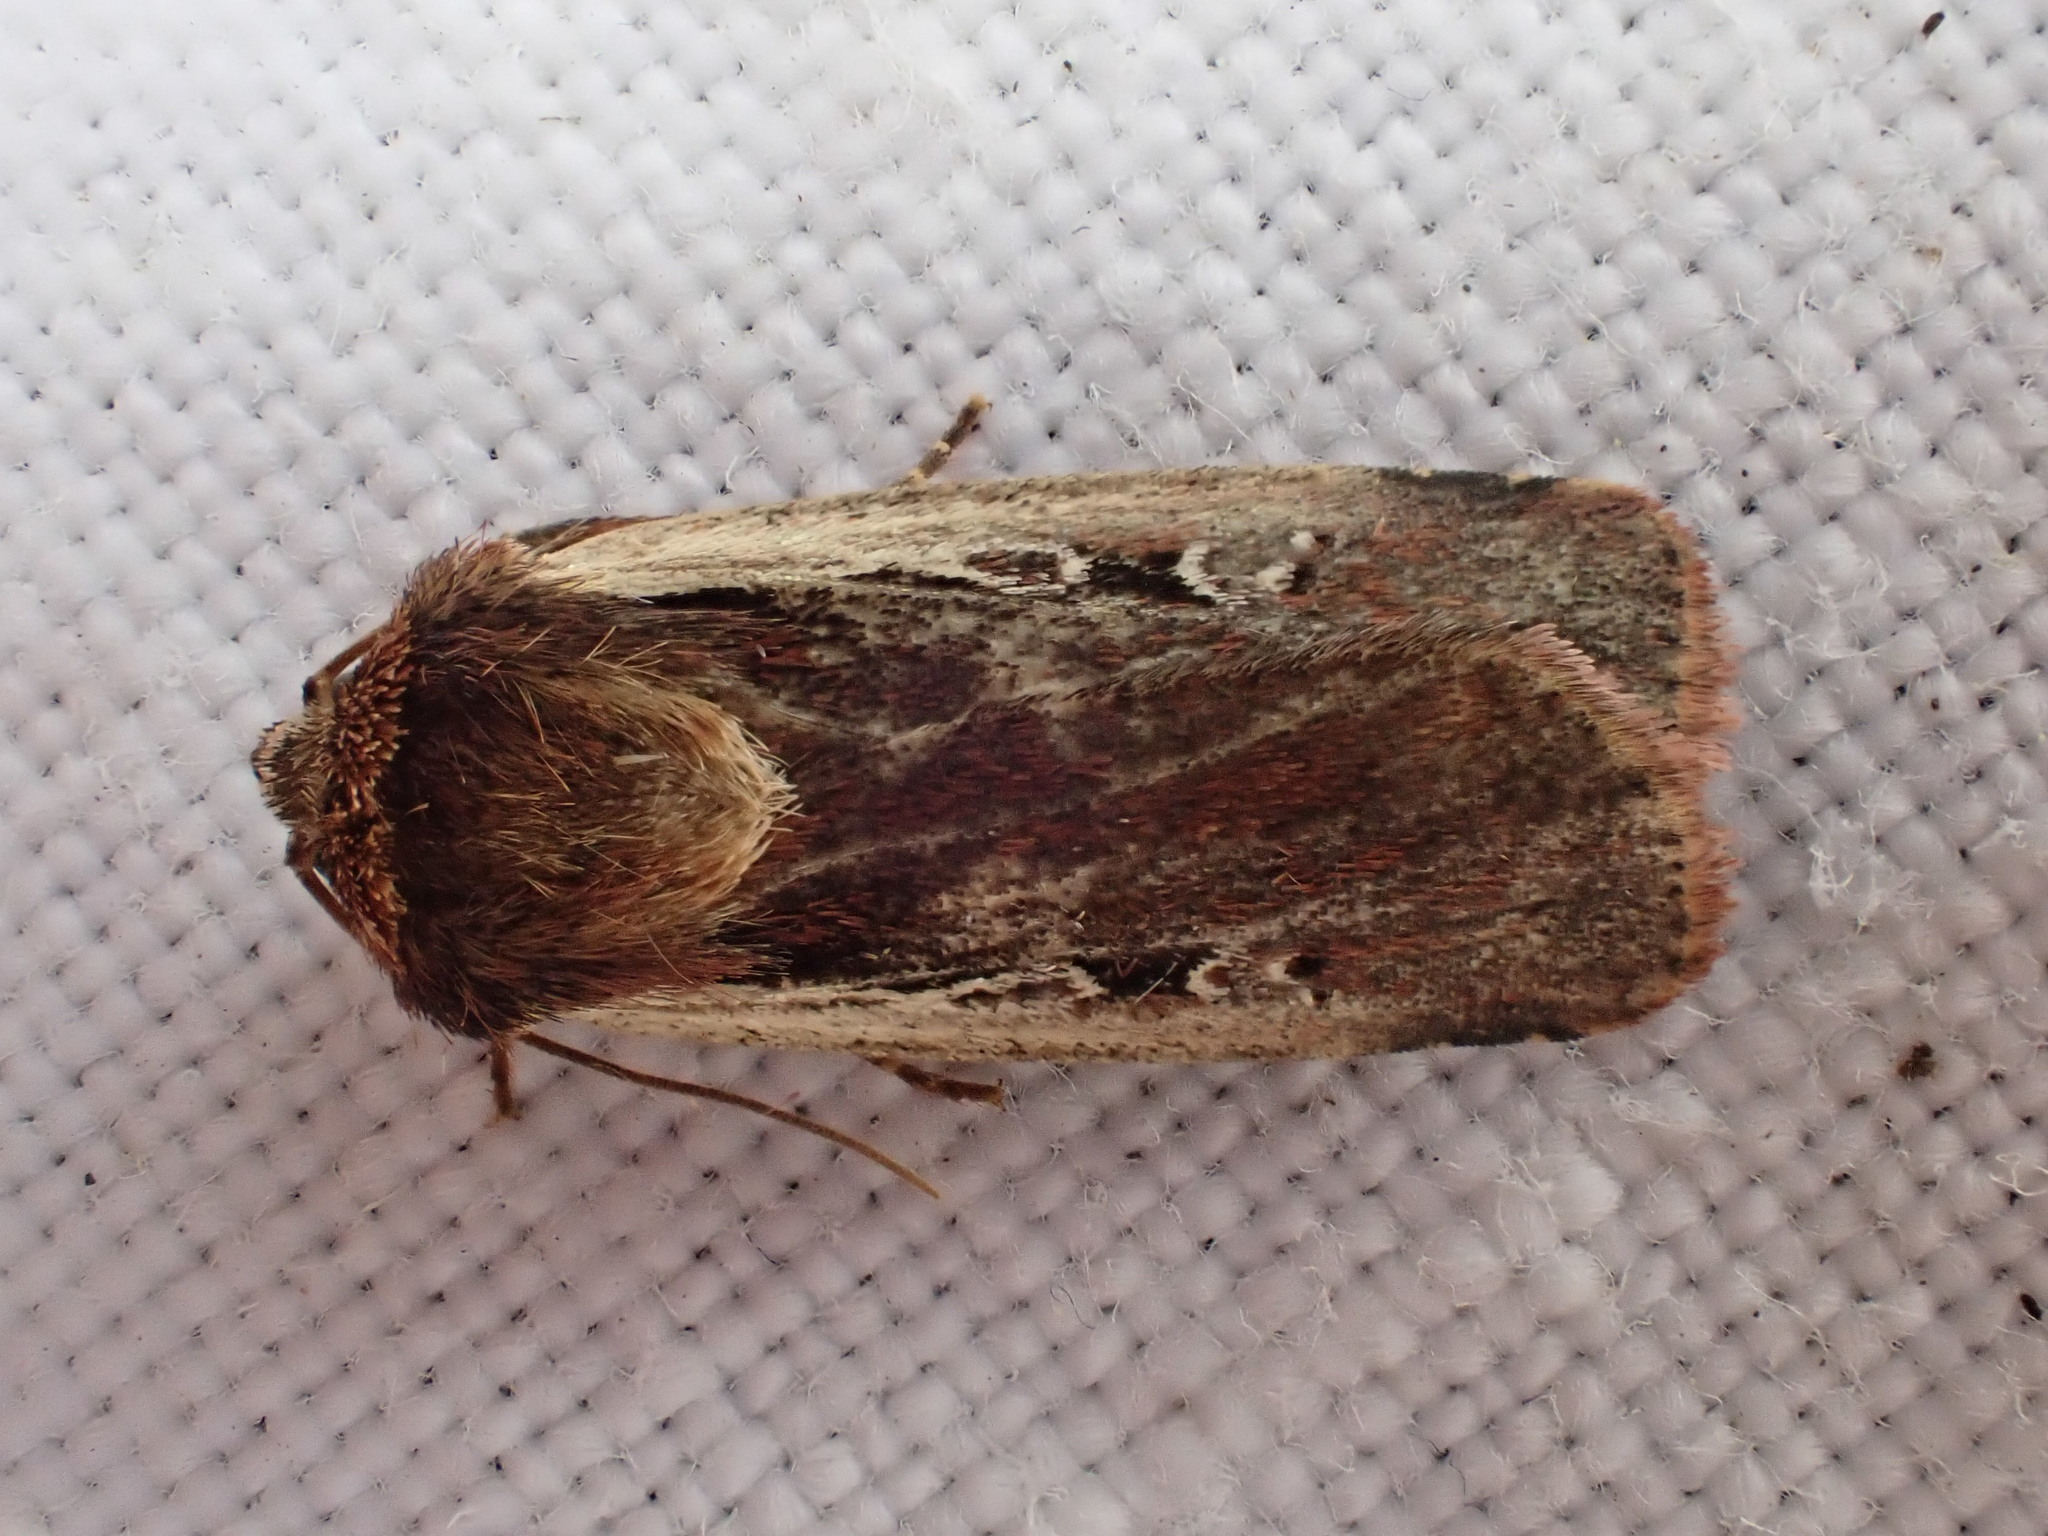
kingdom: Animalia
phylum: Arthropoda
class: Insecta
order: Lepidoptera
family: Noctuidae
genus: Ochropleura
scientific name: Ochropleura plecta
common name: Flame shoulder
